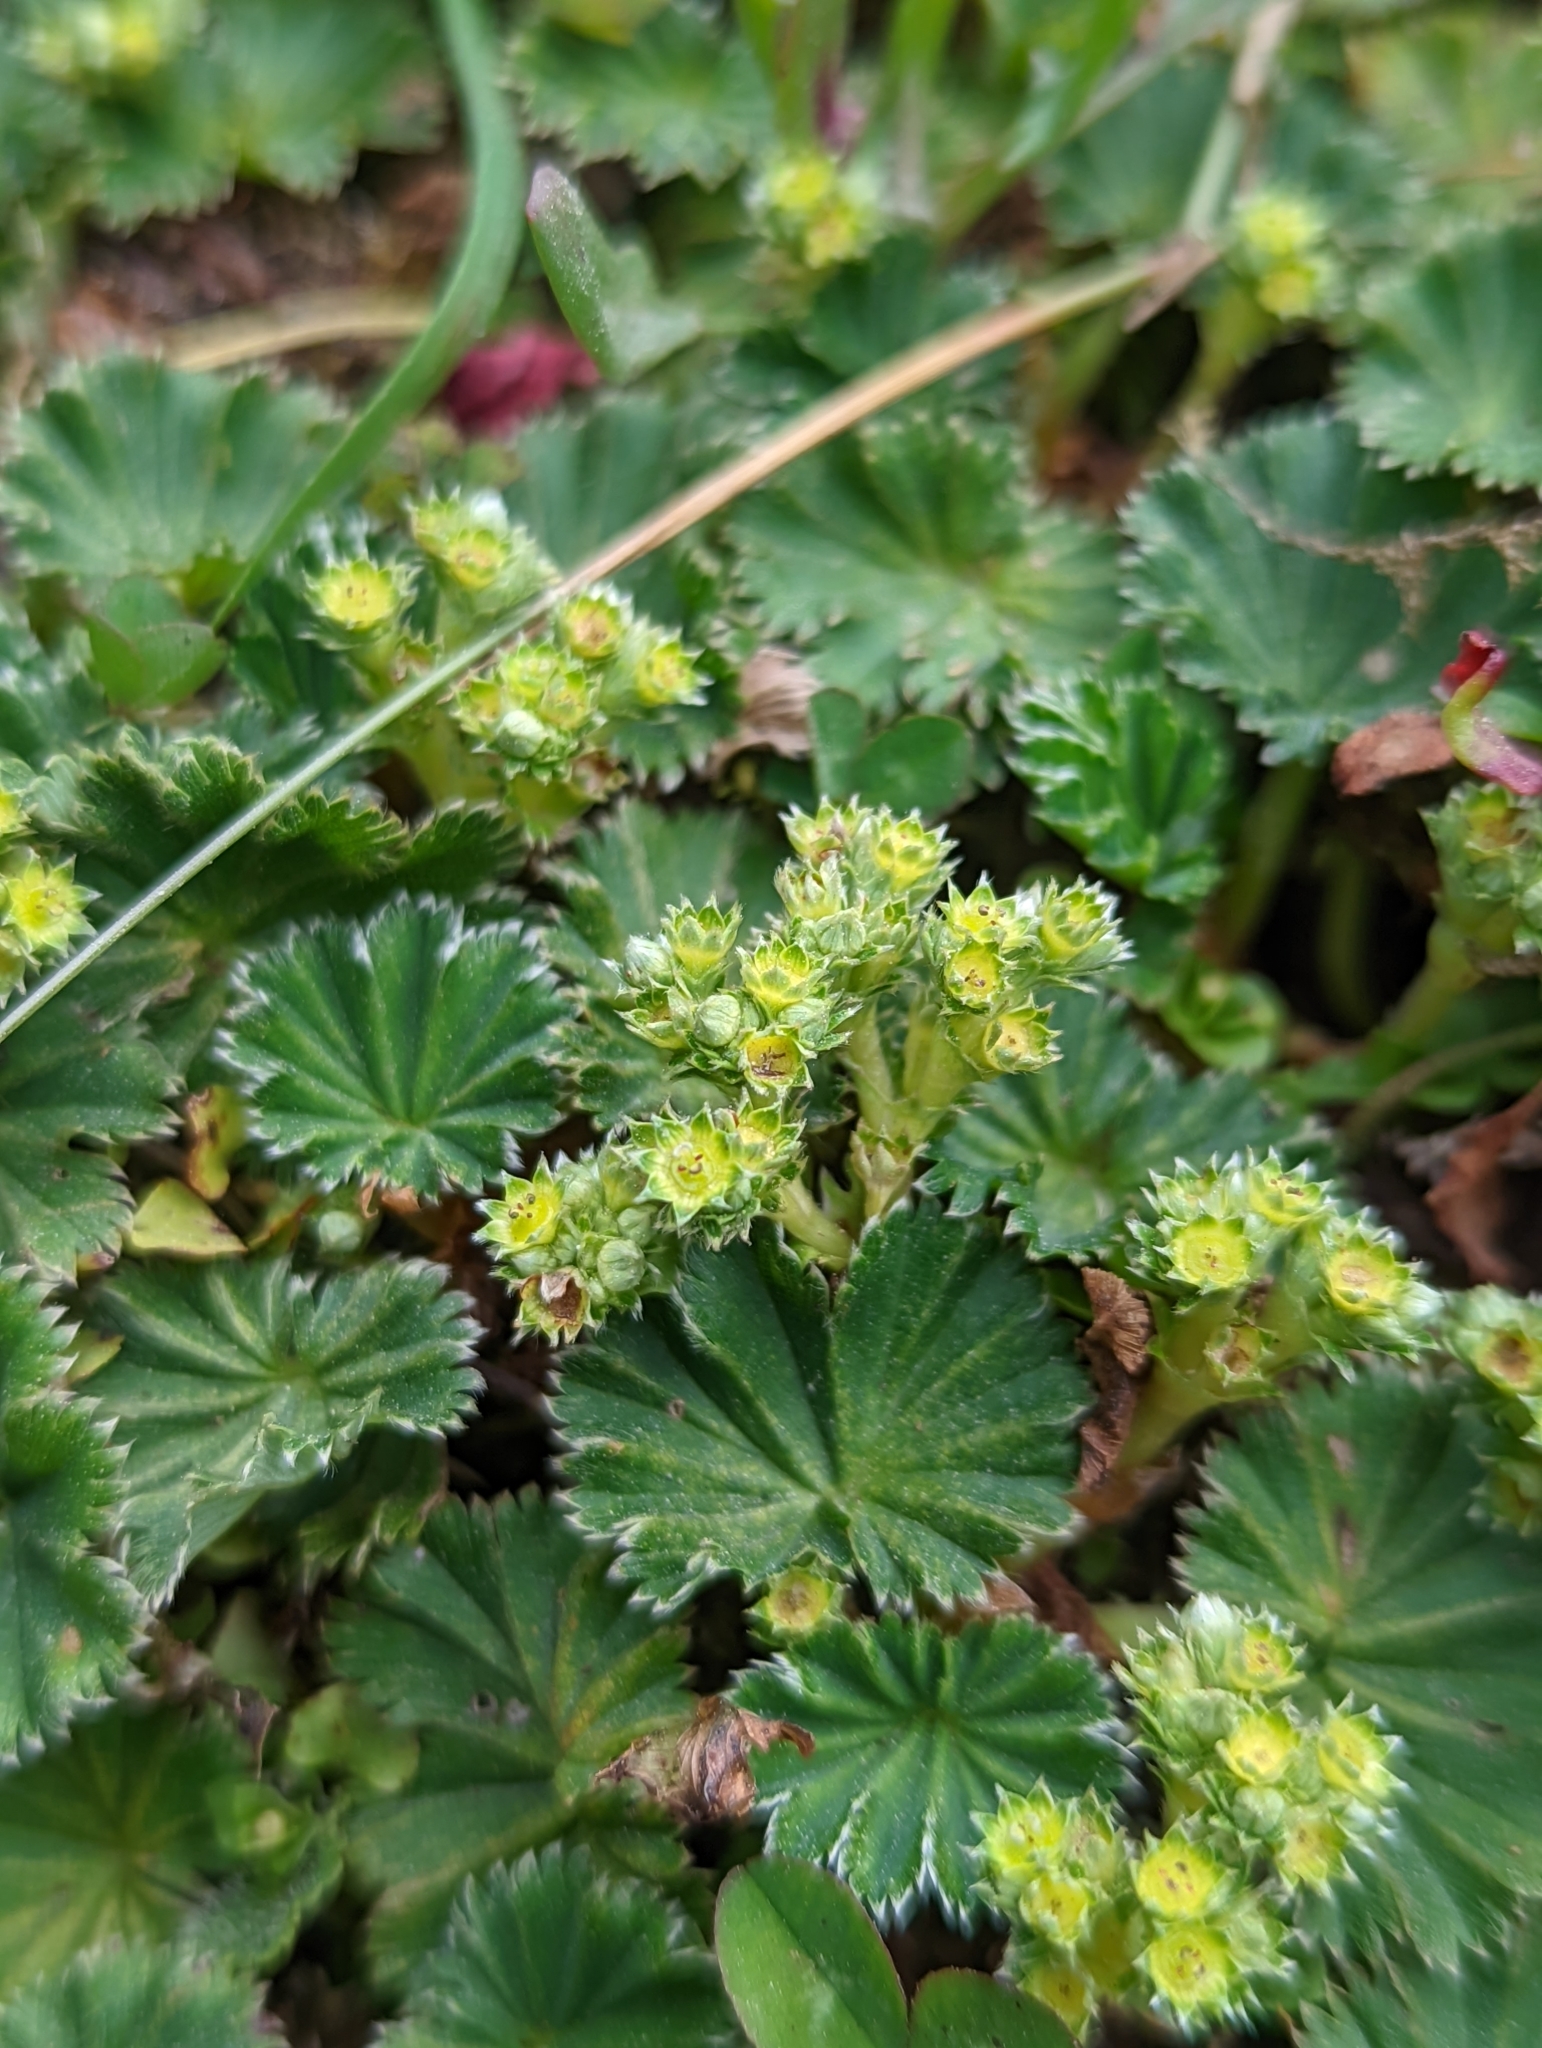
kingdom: Plantae
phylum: Tracheophyta
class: Magnoliopsida
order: Rosales
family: Rosaceae
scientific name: Rosaceae
